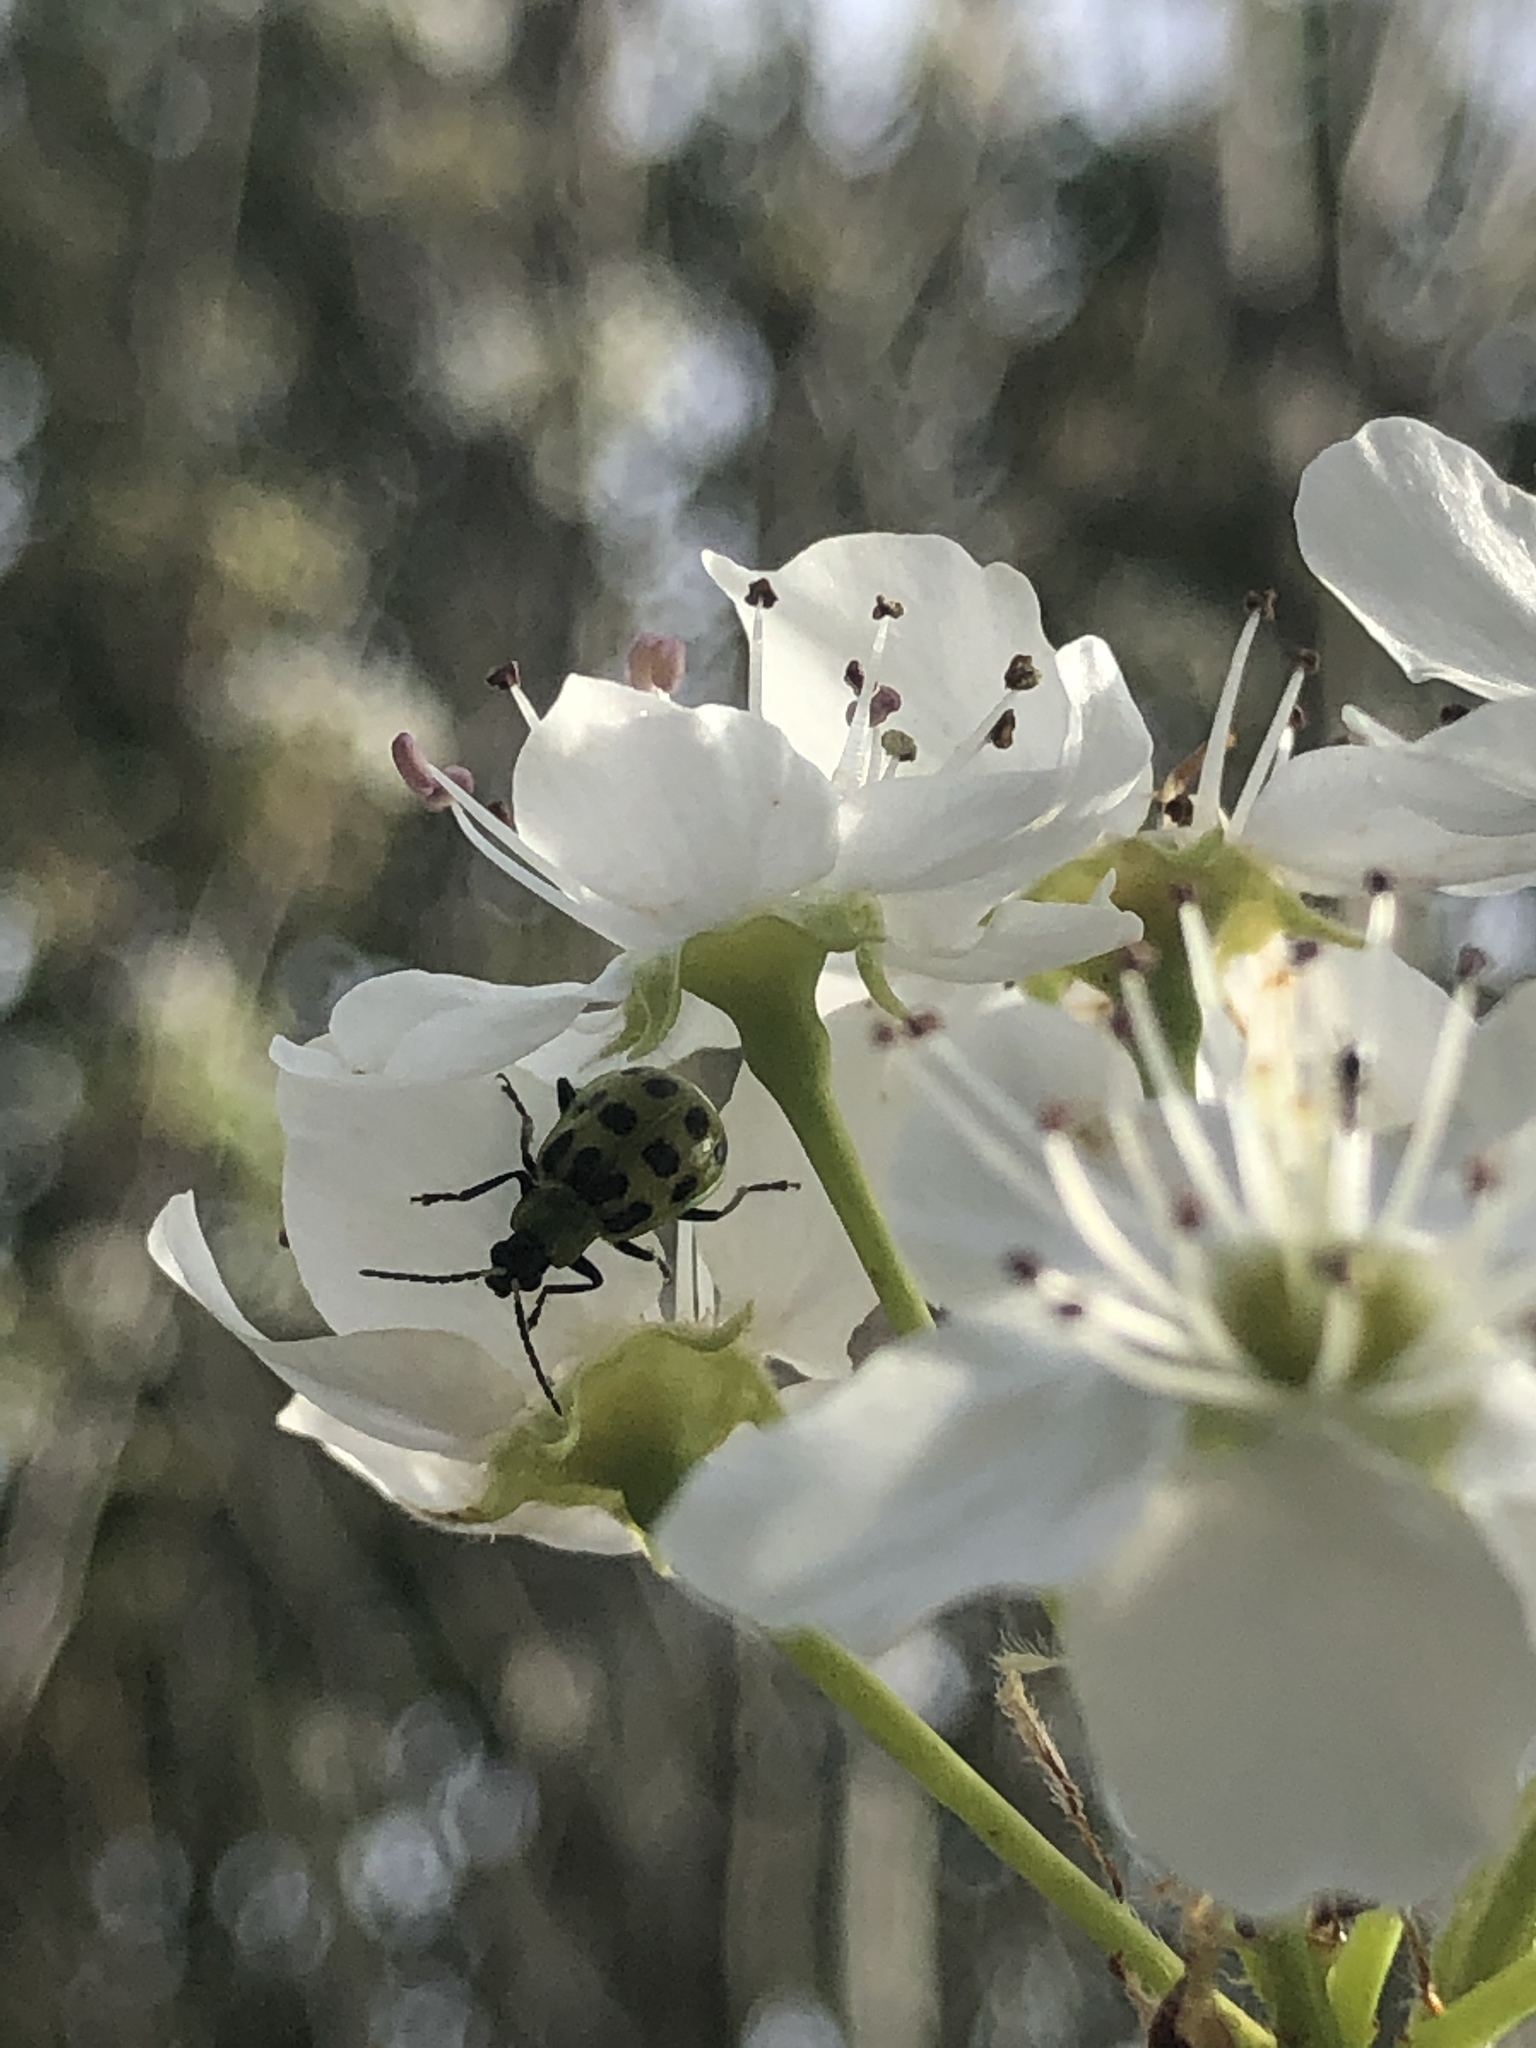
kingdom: Animalia
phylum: Arthropoda
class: Insecta
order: Coleoptera
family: Chrysomelidae
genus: Diabrotica
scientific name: Diabrotica undecimpunctata
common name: Spotted cucumber beetle
